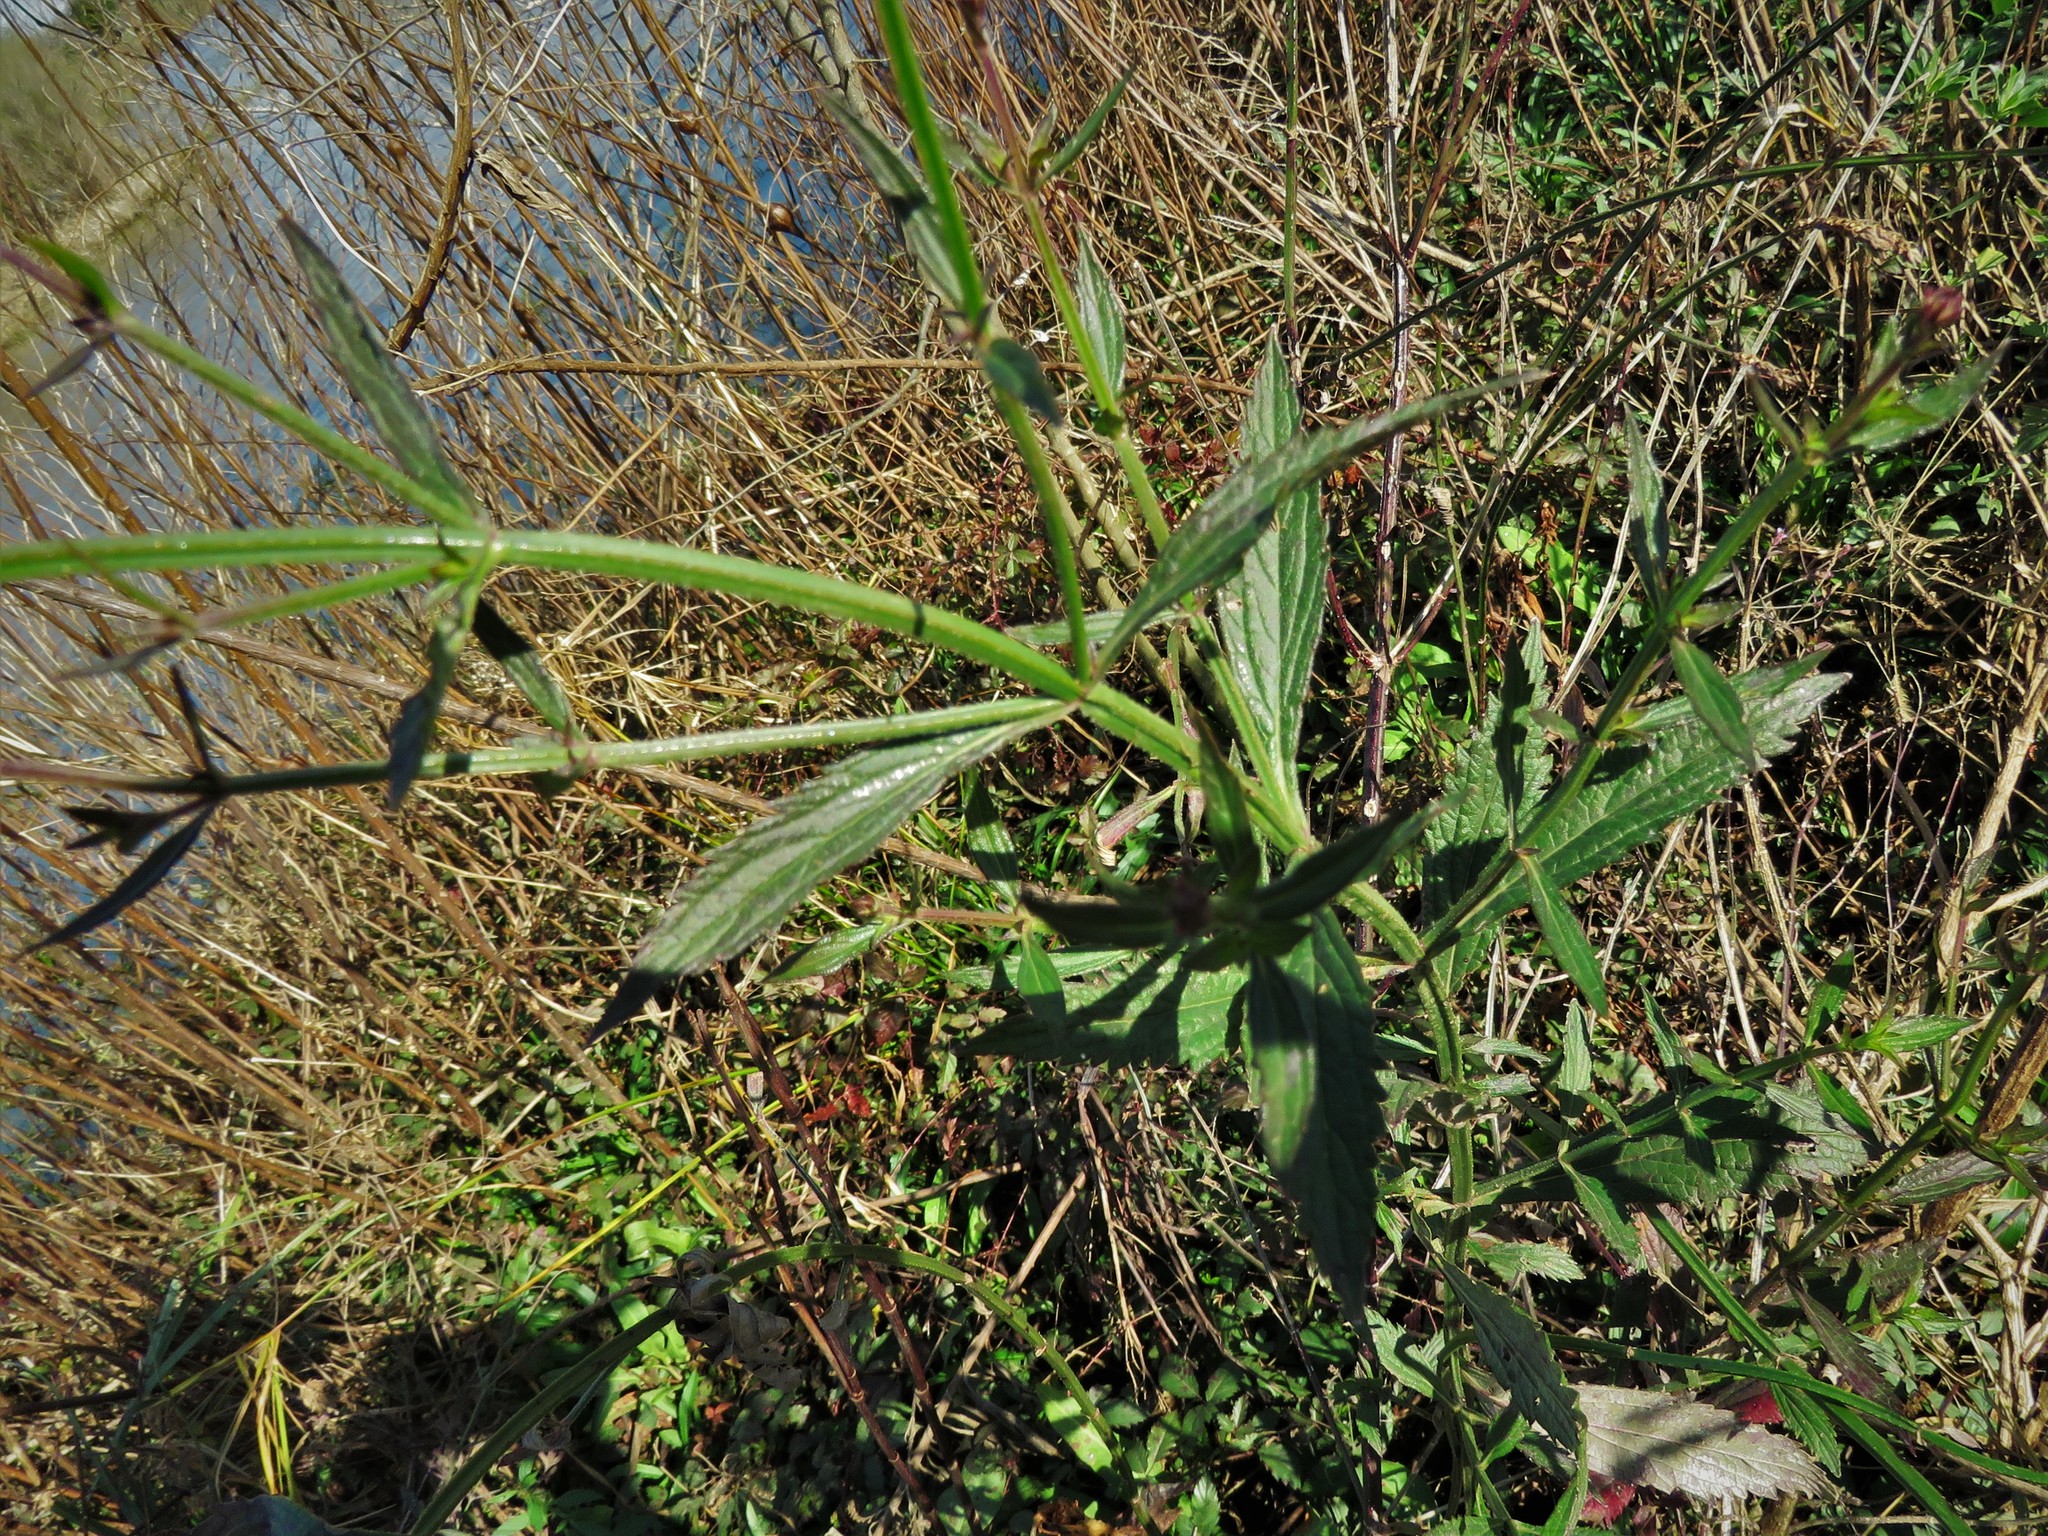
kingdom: Plantae
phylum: Tracheophyta
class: Magnoliopsida
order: Lamiales
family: Verbenaceae
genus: Verbena
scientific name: Verbena brasiliensis
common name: Brazilian vervain
